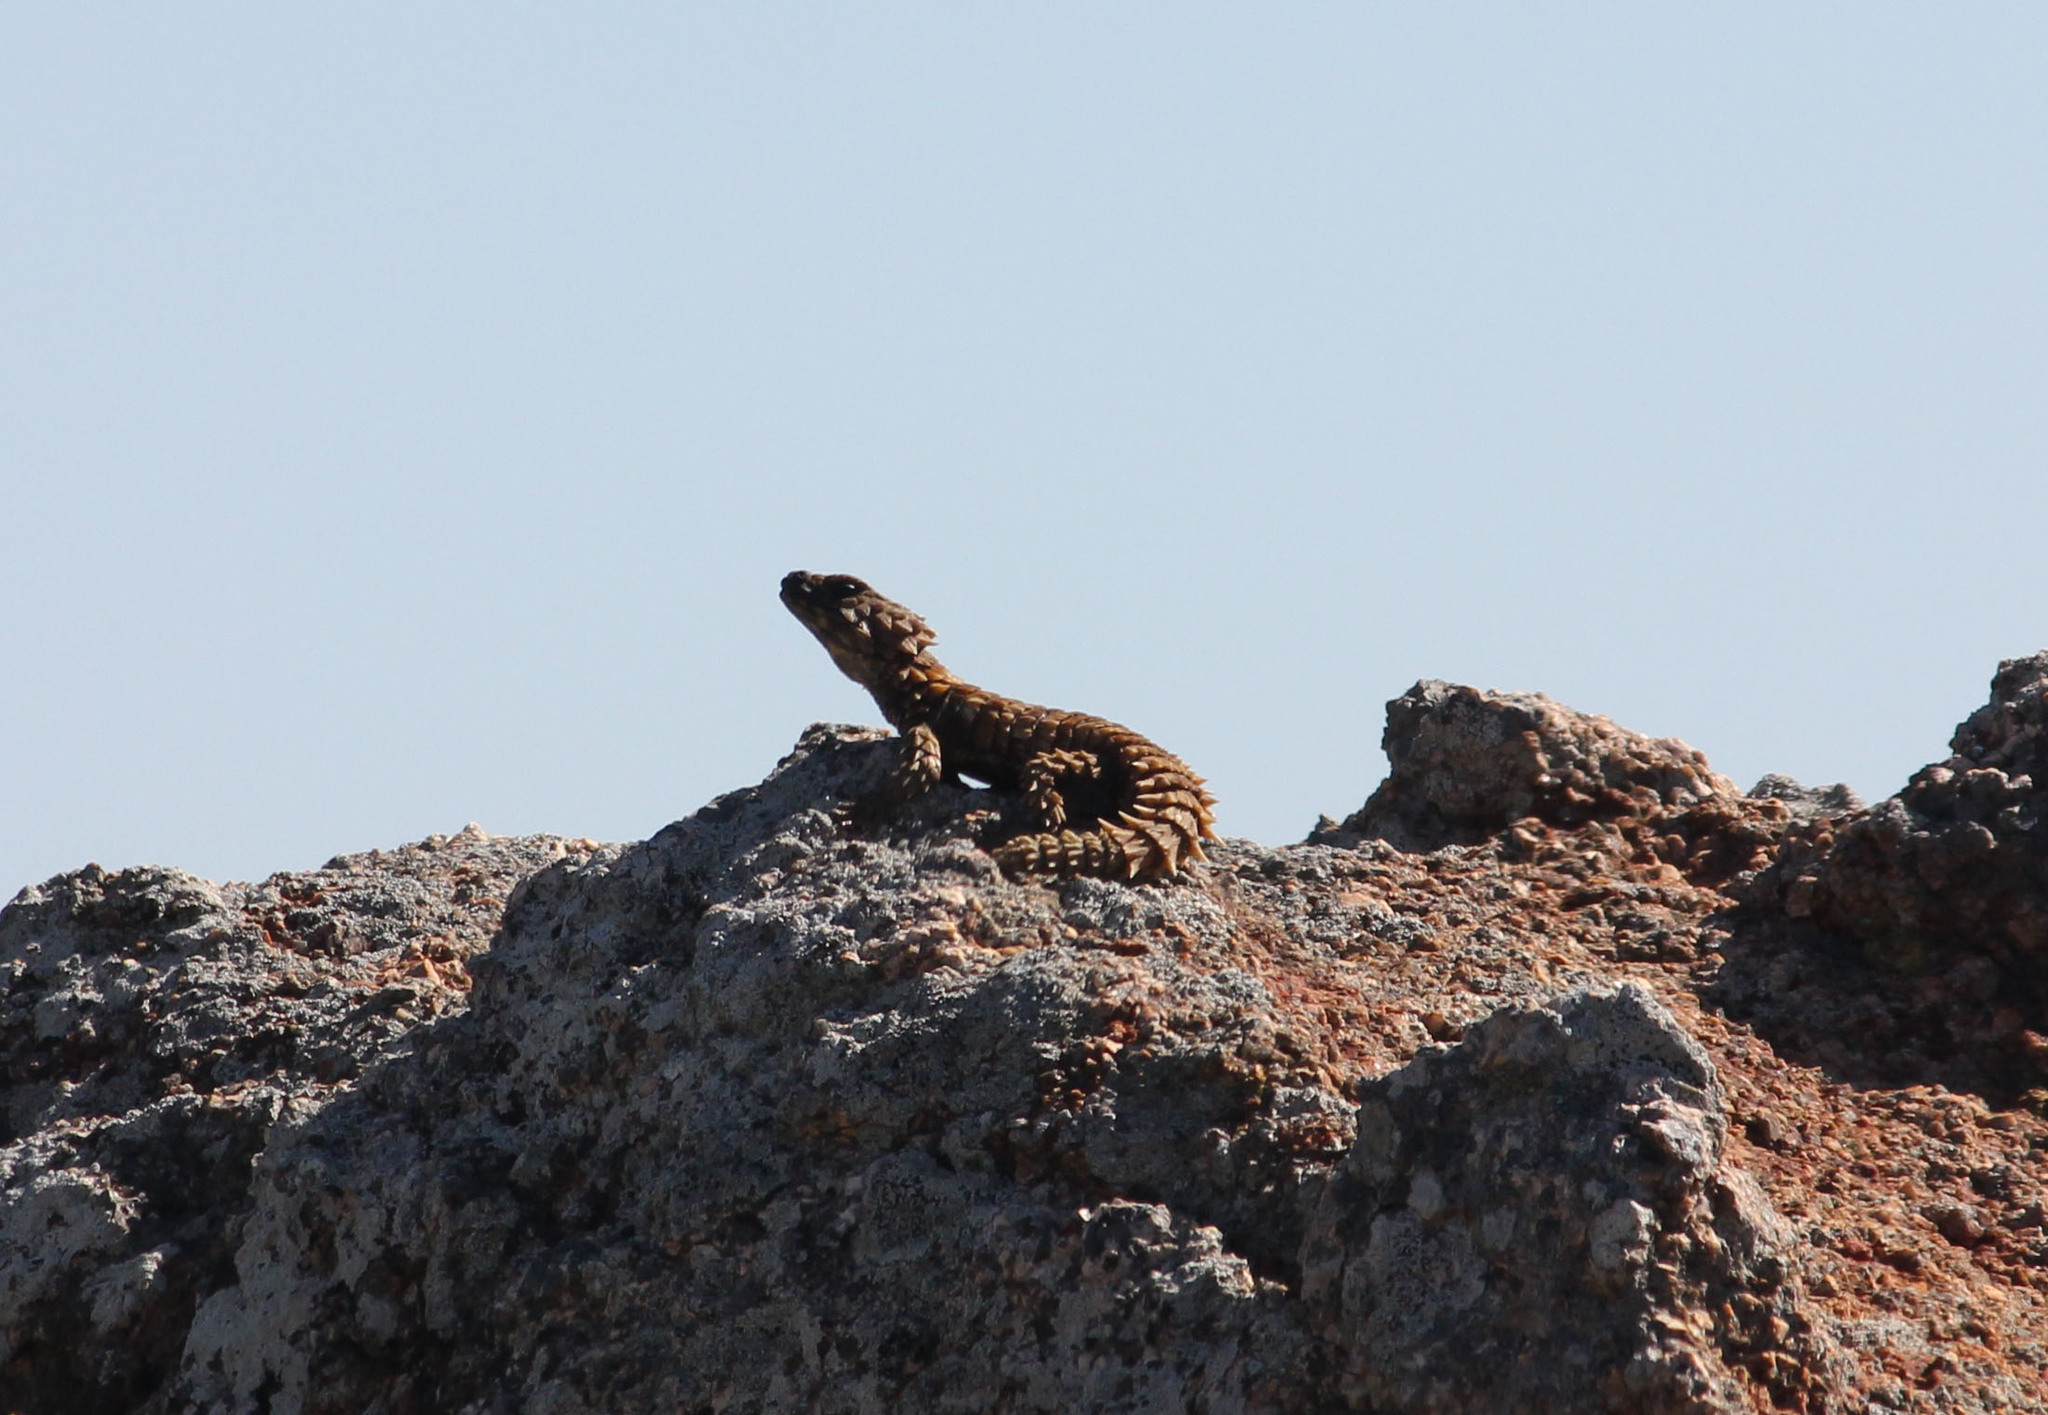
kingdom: Animalia
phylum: Chordata
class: Squamata
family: Cordylidae
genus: Ouroborus
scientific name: Ouroborus cataphractus
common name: Armadillo girdled lizard
